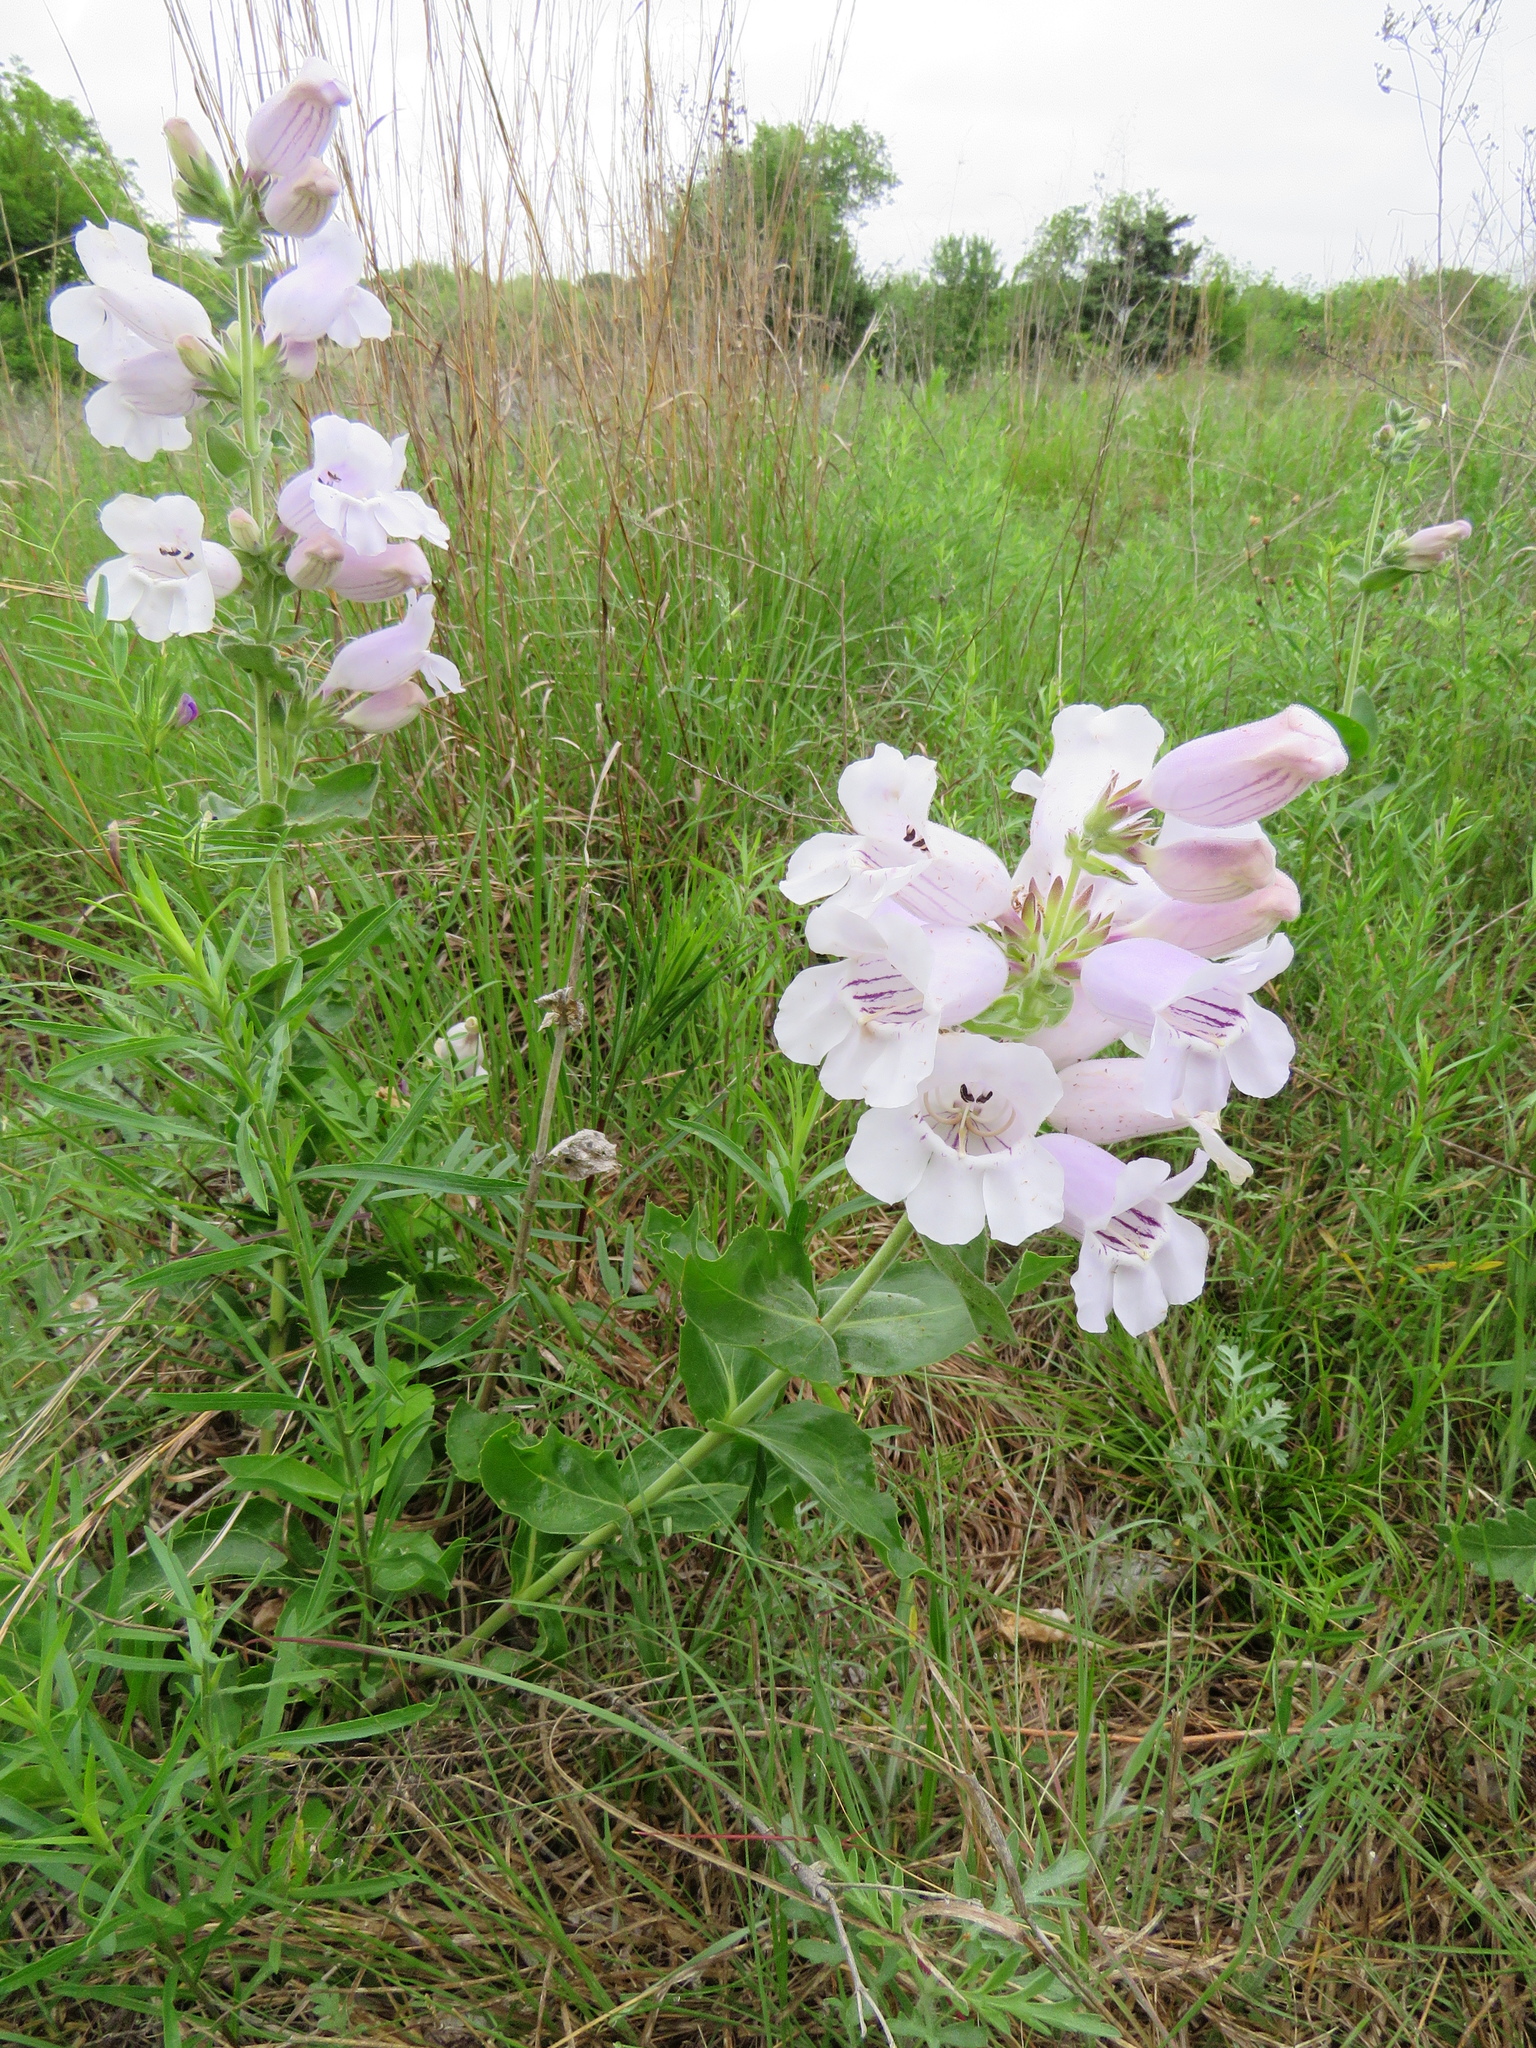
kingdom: Plantae
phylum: Tracheophyta
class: Magnoliopsida
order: Lamiales
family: Plantaginaceae
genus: Penstemon
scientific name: Penstemon cobaea
